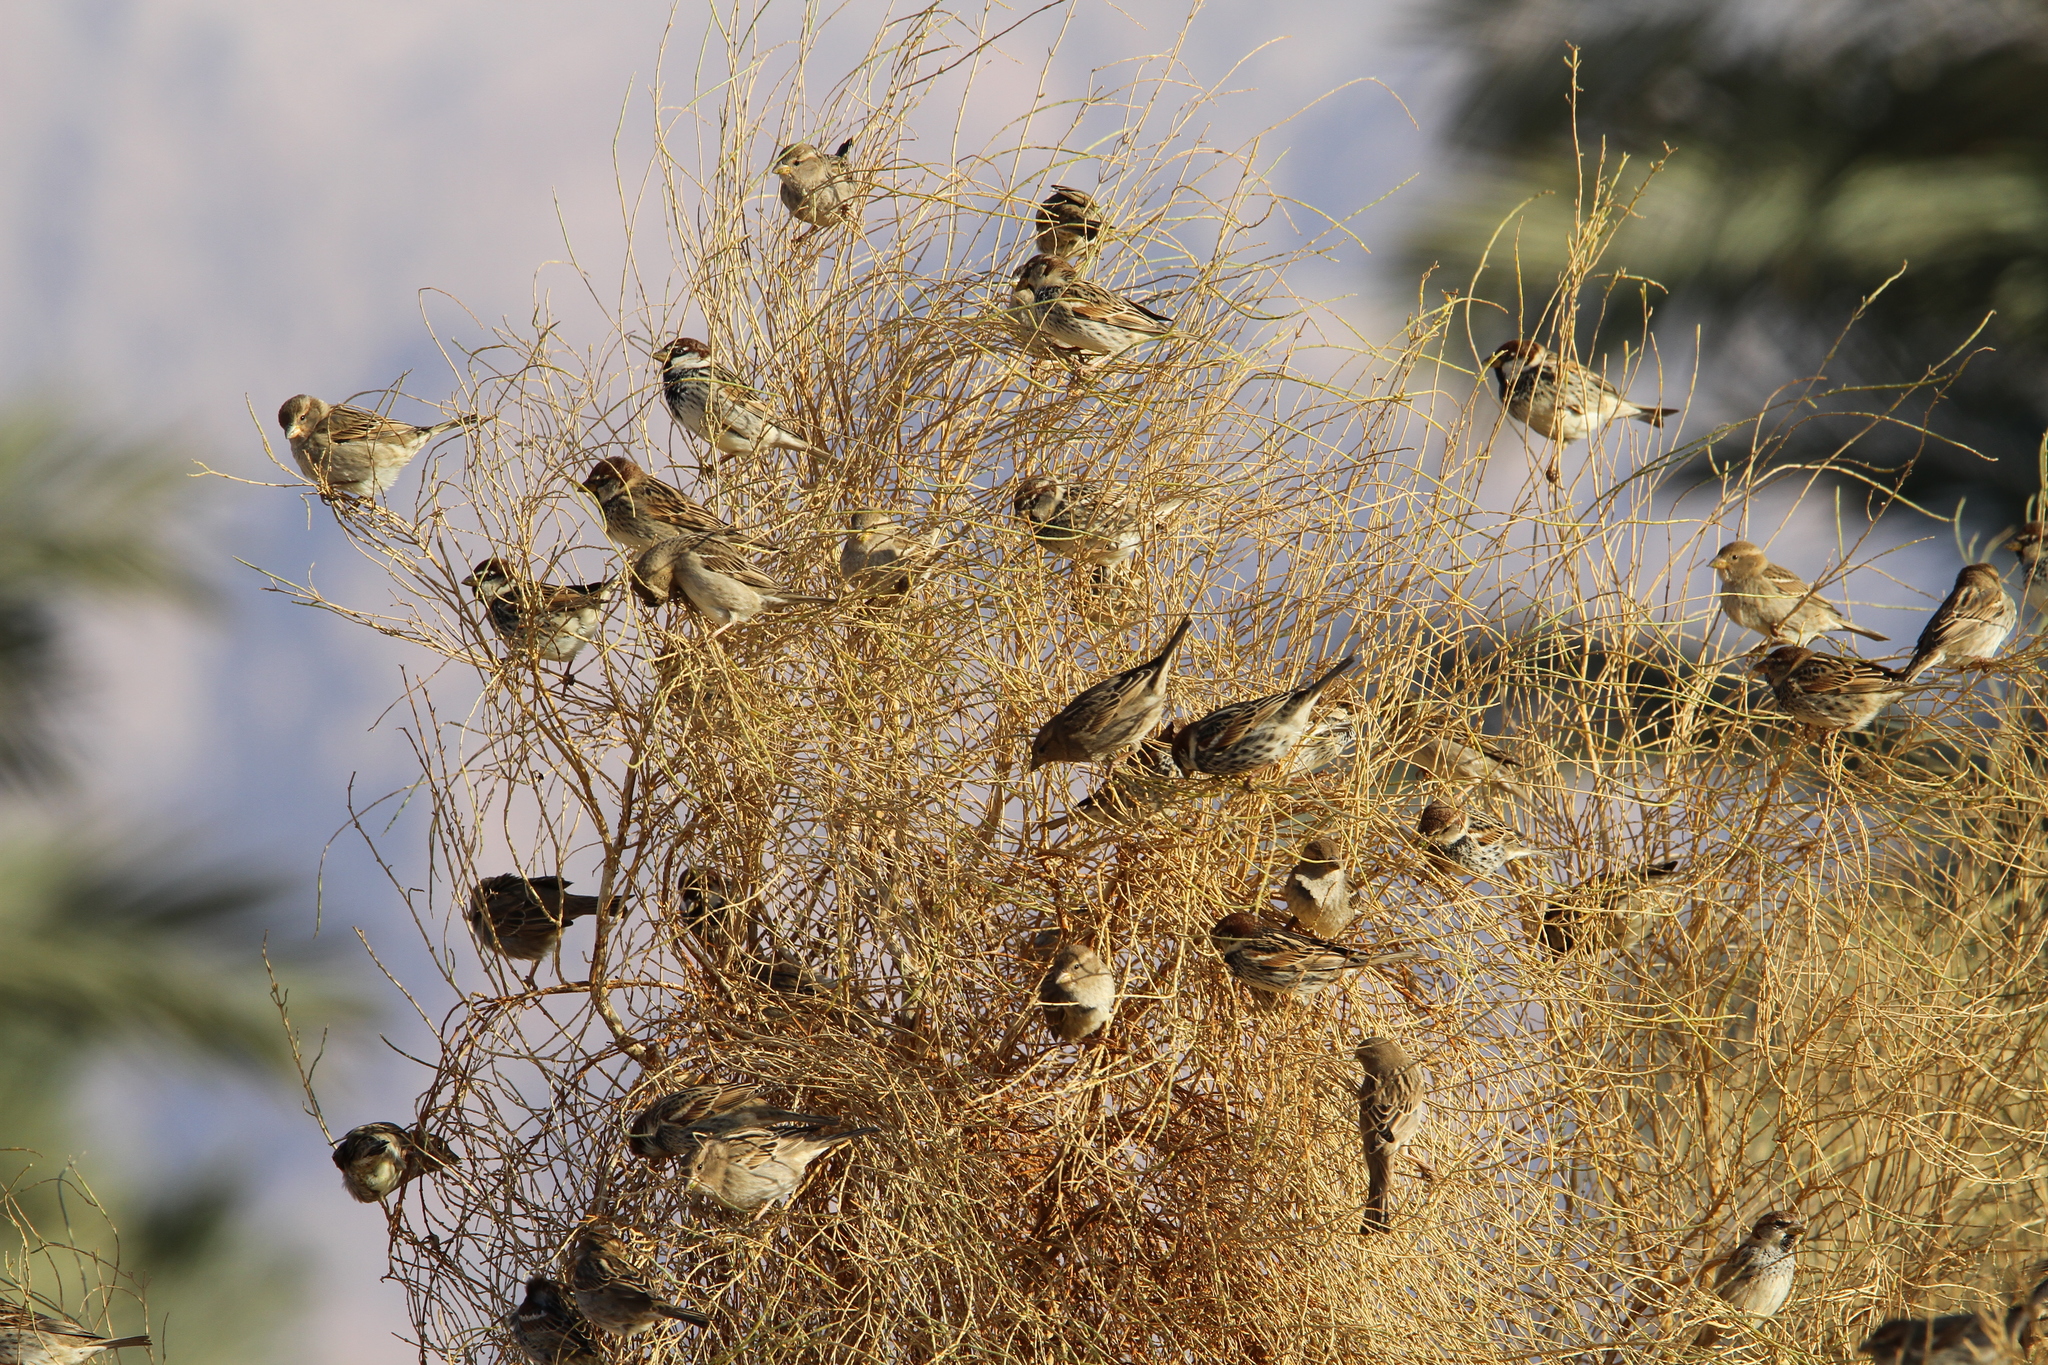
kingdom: Animalia
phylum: Chordata
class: Aves
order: Passeriformes
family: Passeridae
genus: Passer
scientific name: Passer hispaniolensis
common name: Spanish sparrow
